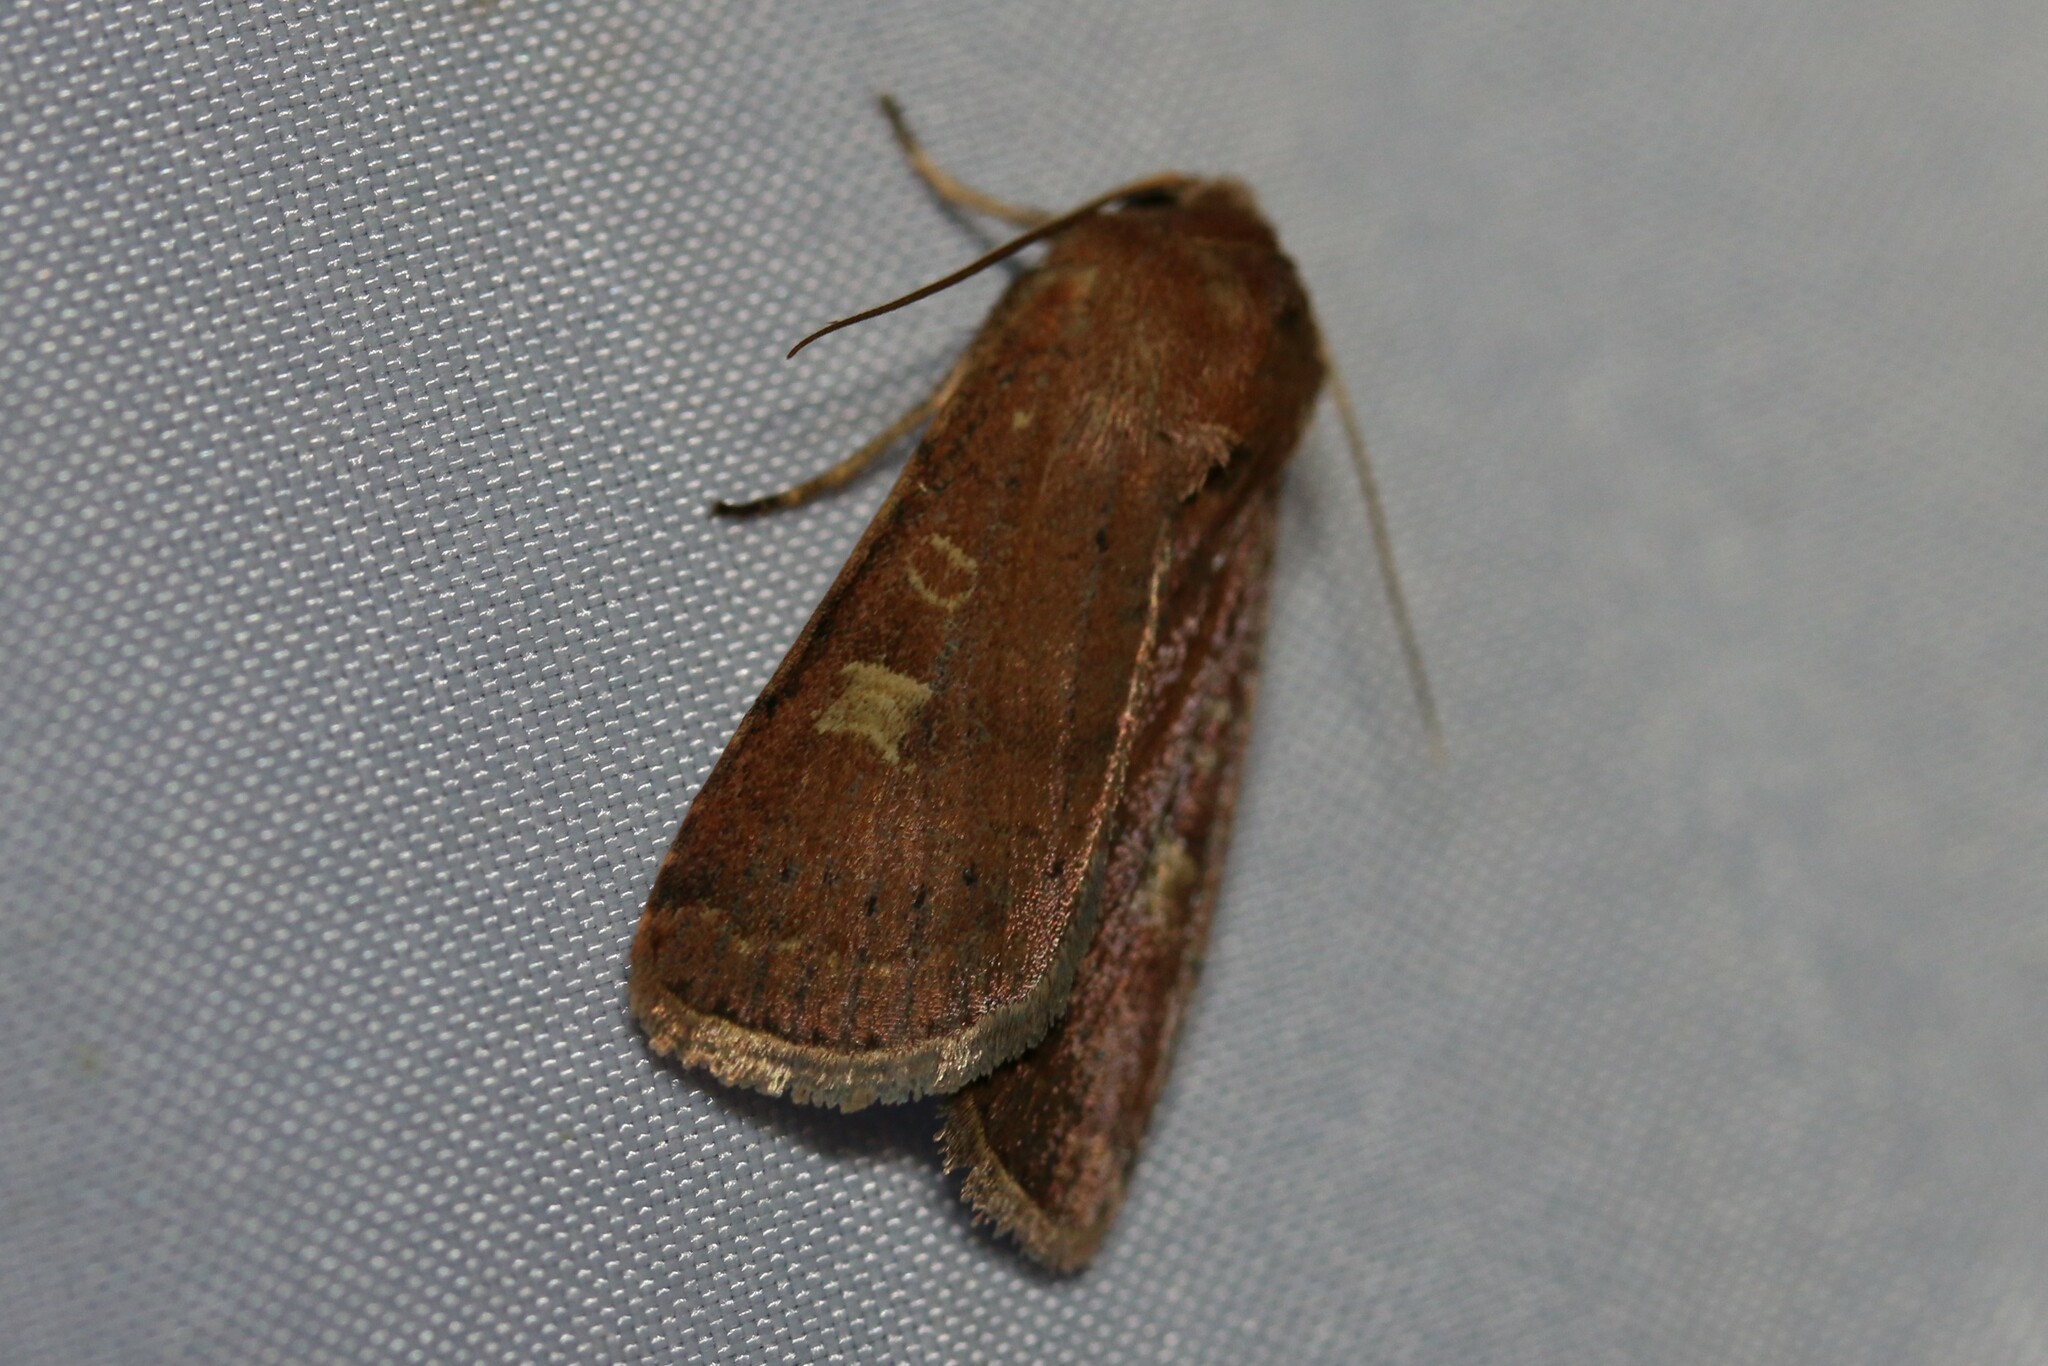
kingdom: Animalia
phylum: Arthropoda
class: Insecta
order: Lepidoptera
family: Noctuidae
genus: Xestia
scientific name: Xestia xanthographa
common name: Square-spot rustic
